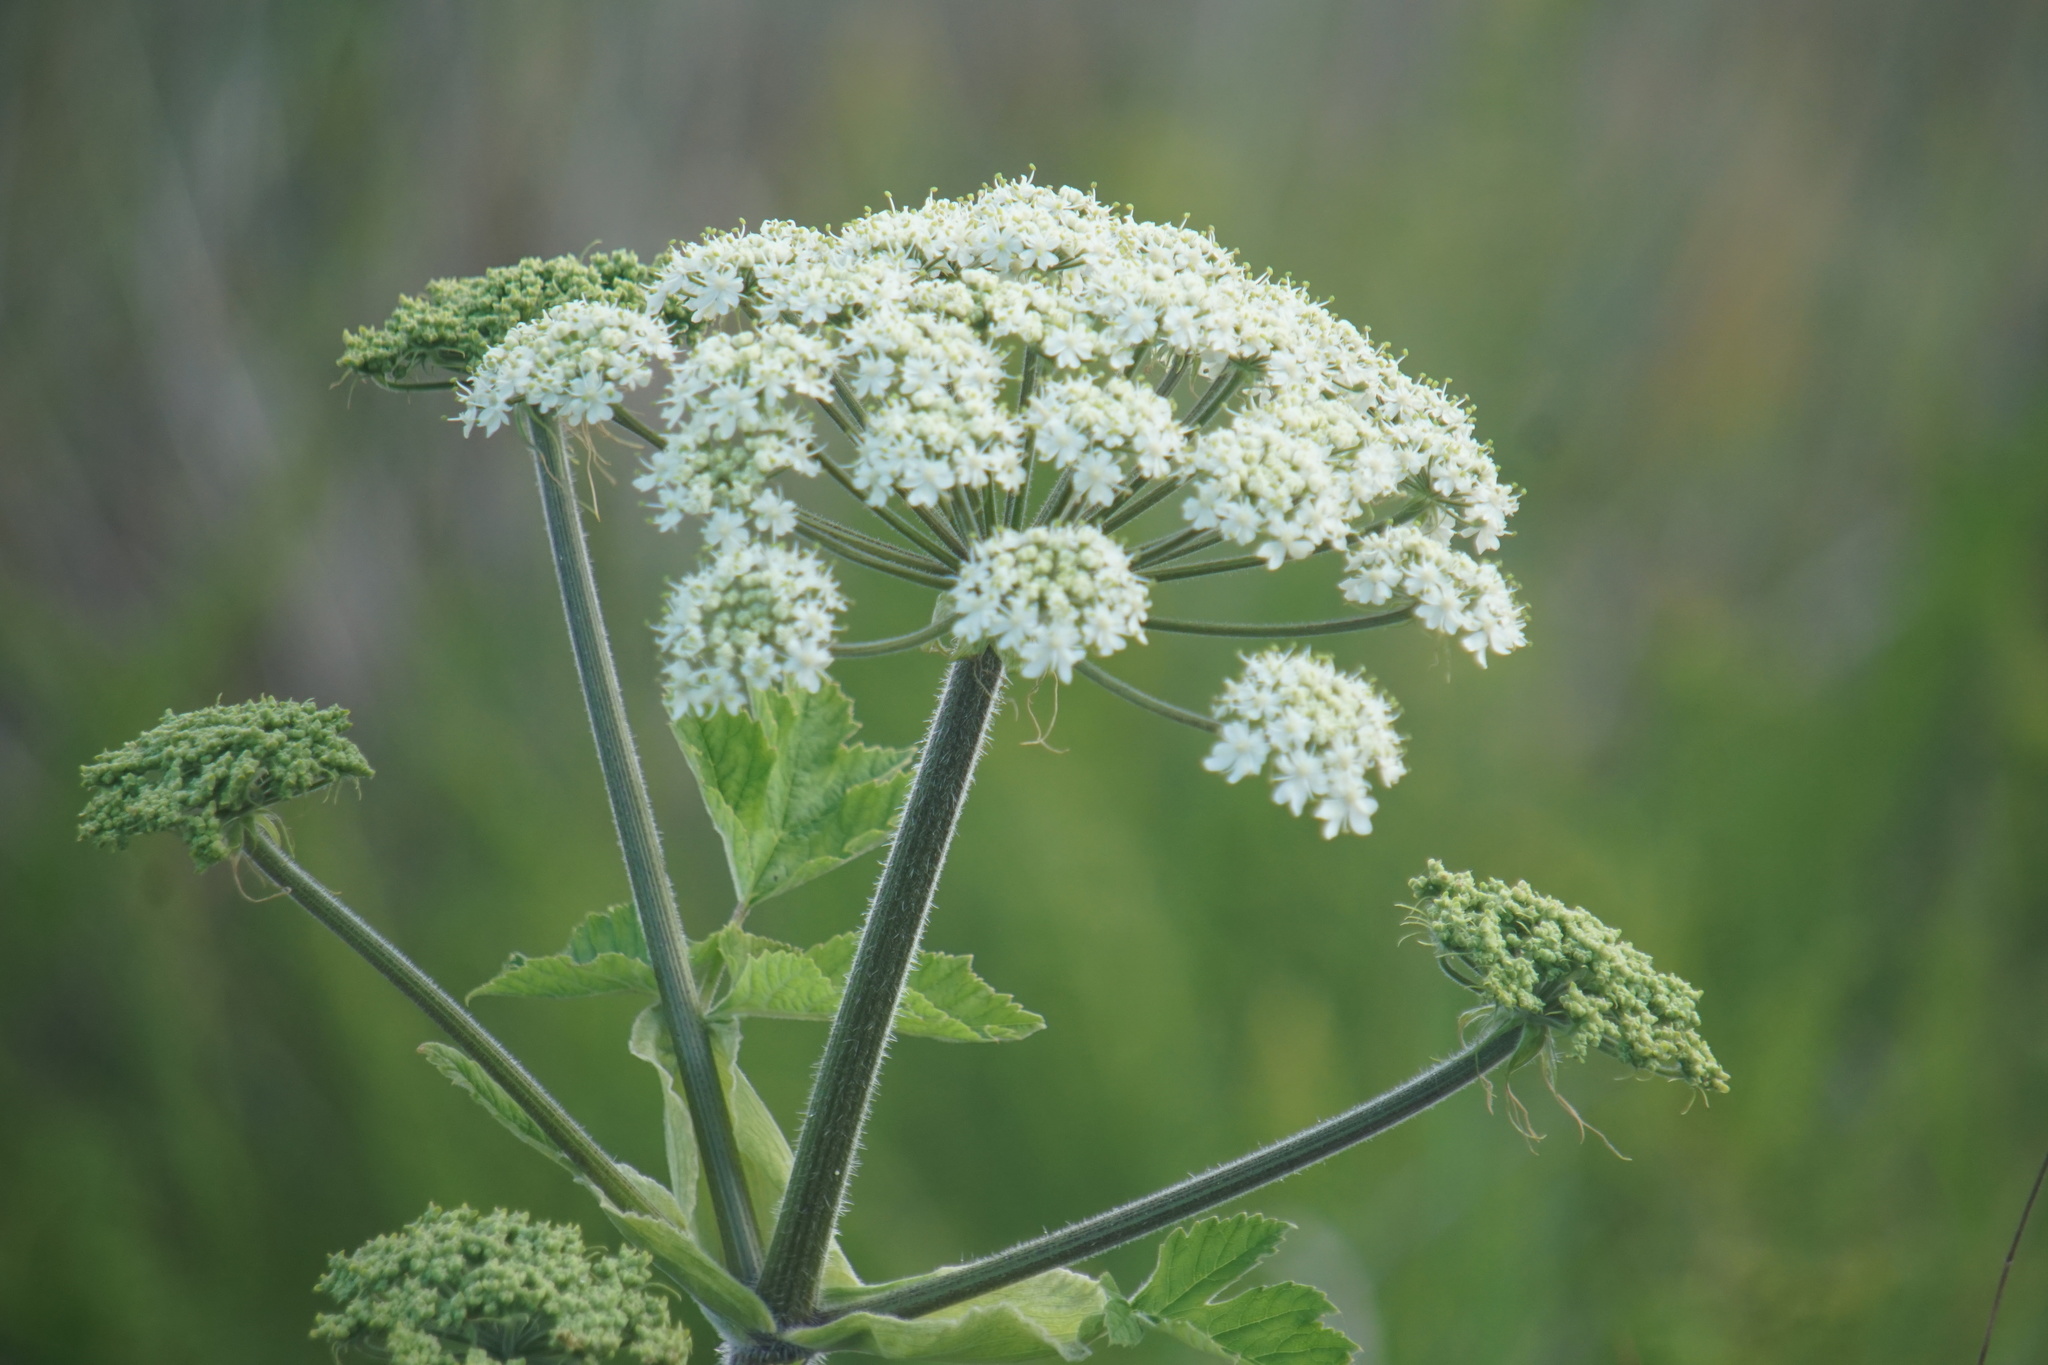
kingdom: Plantae
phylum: Tracheophyta
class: Magnoliopsida
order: Apiales
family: Apiaceae
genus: Heracleum
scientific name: Heracleum maximum
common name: American cow parsnip
